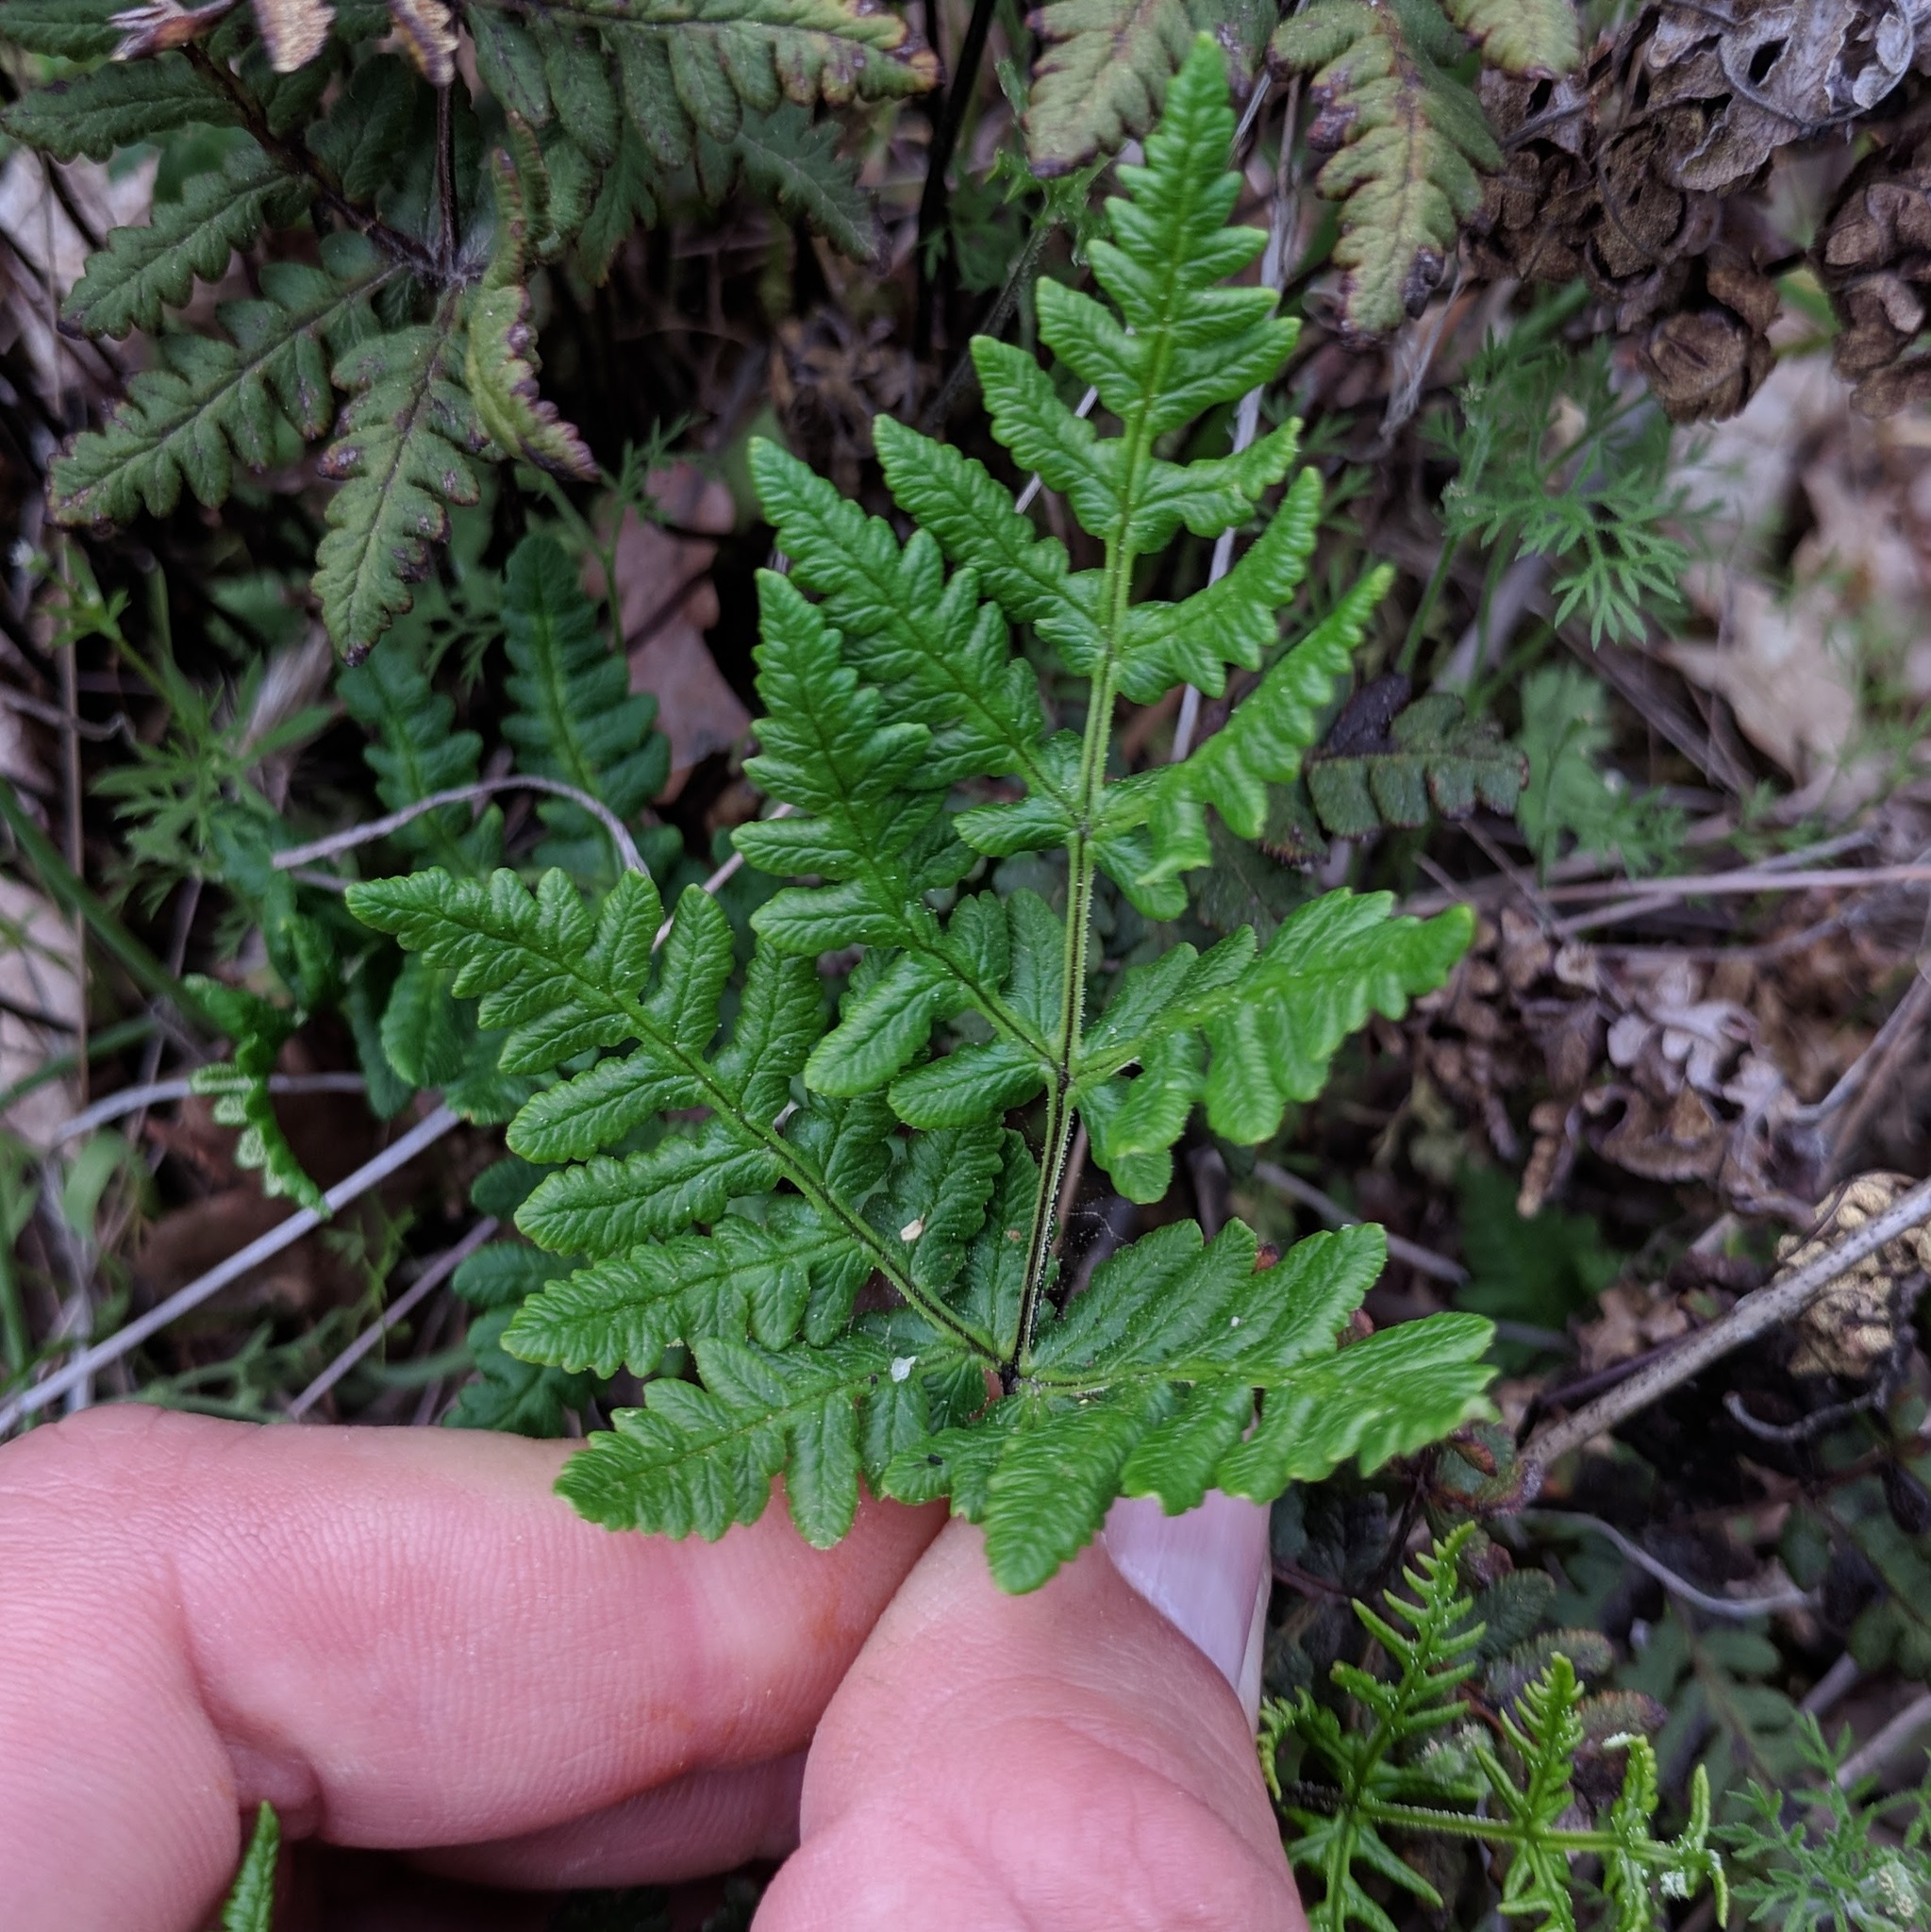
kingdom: Plantae
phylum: Tracheophyta
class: Polypodiopsida
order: Polypodiales
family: Pteridaceae
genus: Pentagramma
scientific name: Pentagramma triangularis
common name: Gold fern
